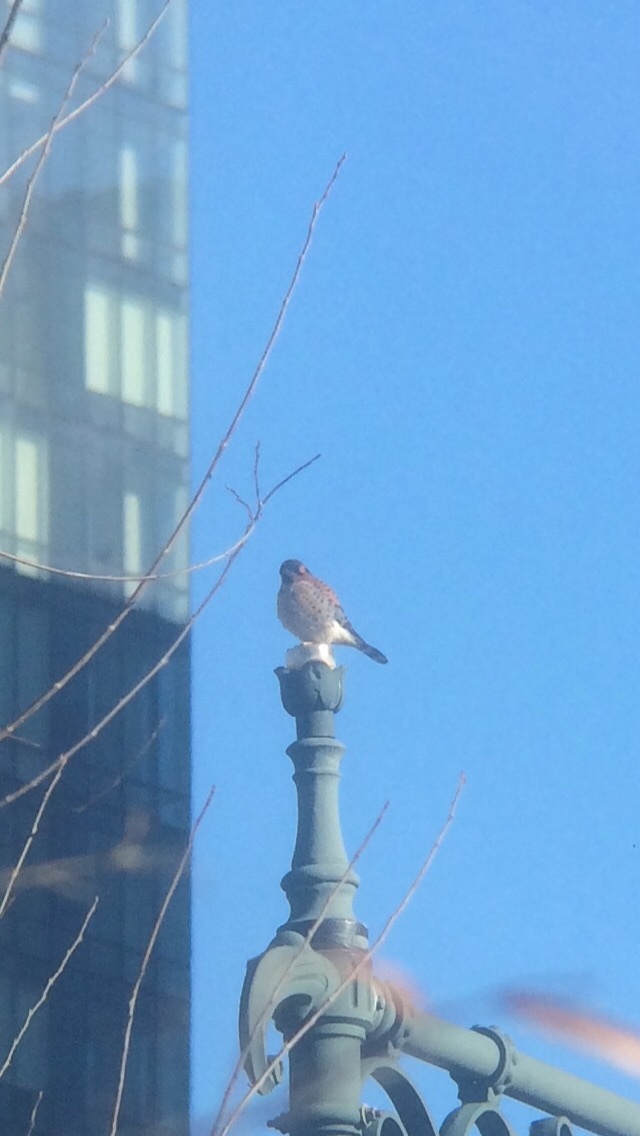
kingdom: Animalia
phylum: Chordata
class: Aves
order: Falconiformes
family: Falconidae
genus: Falco
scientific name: Falco sparverius
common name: American kestrel
